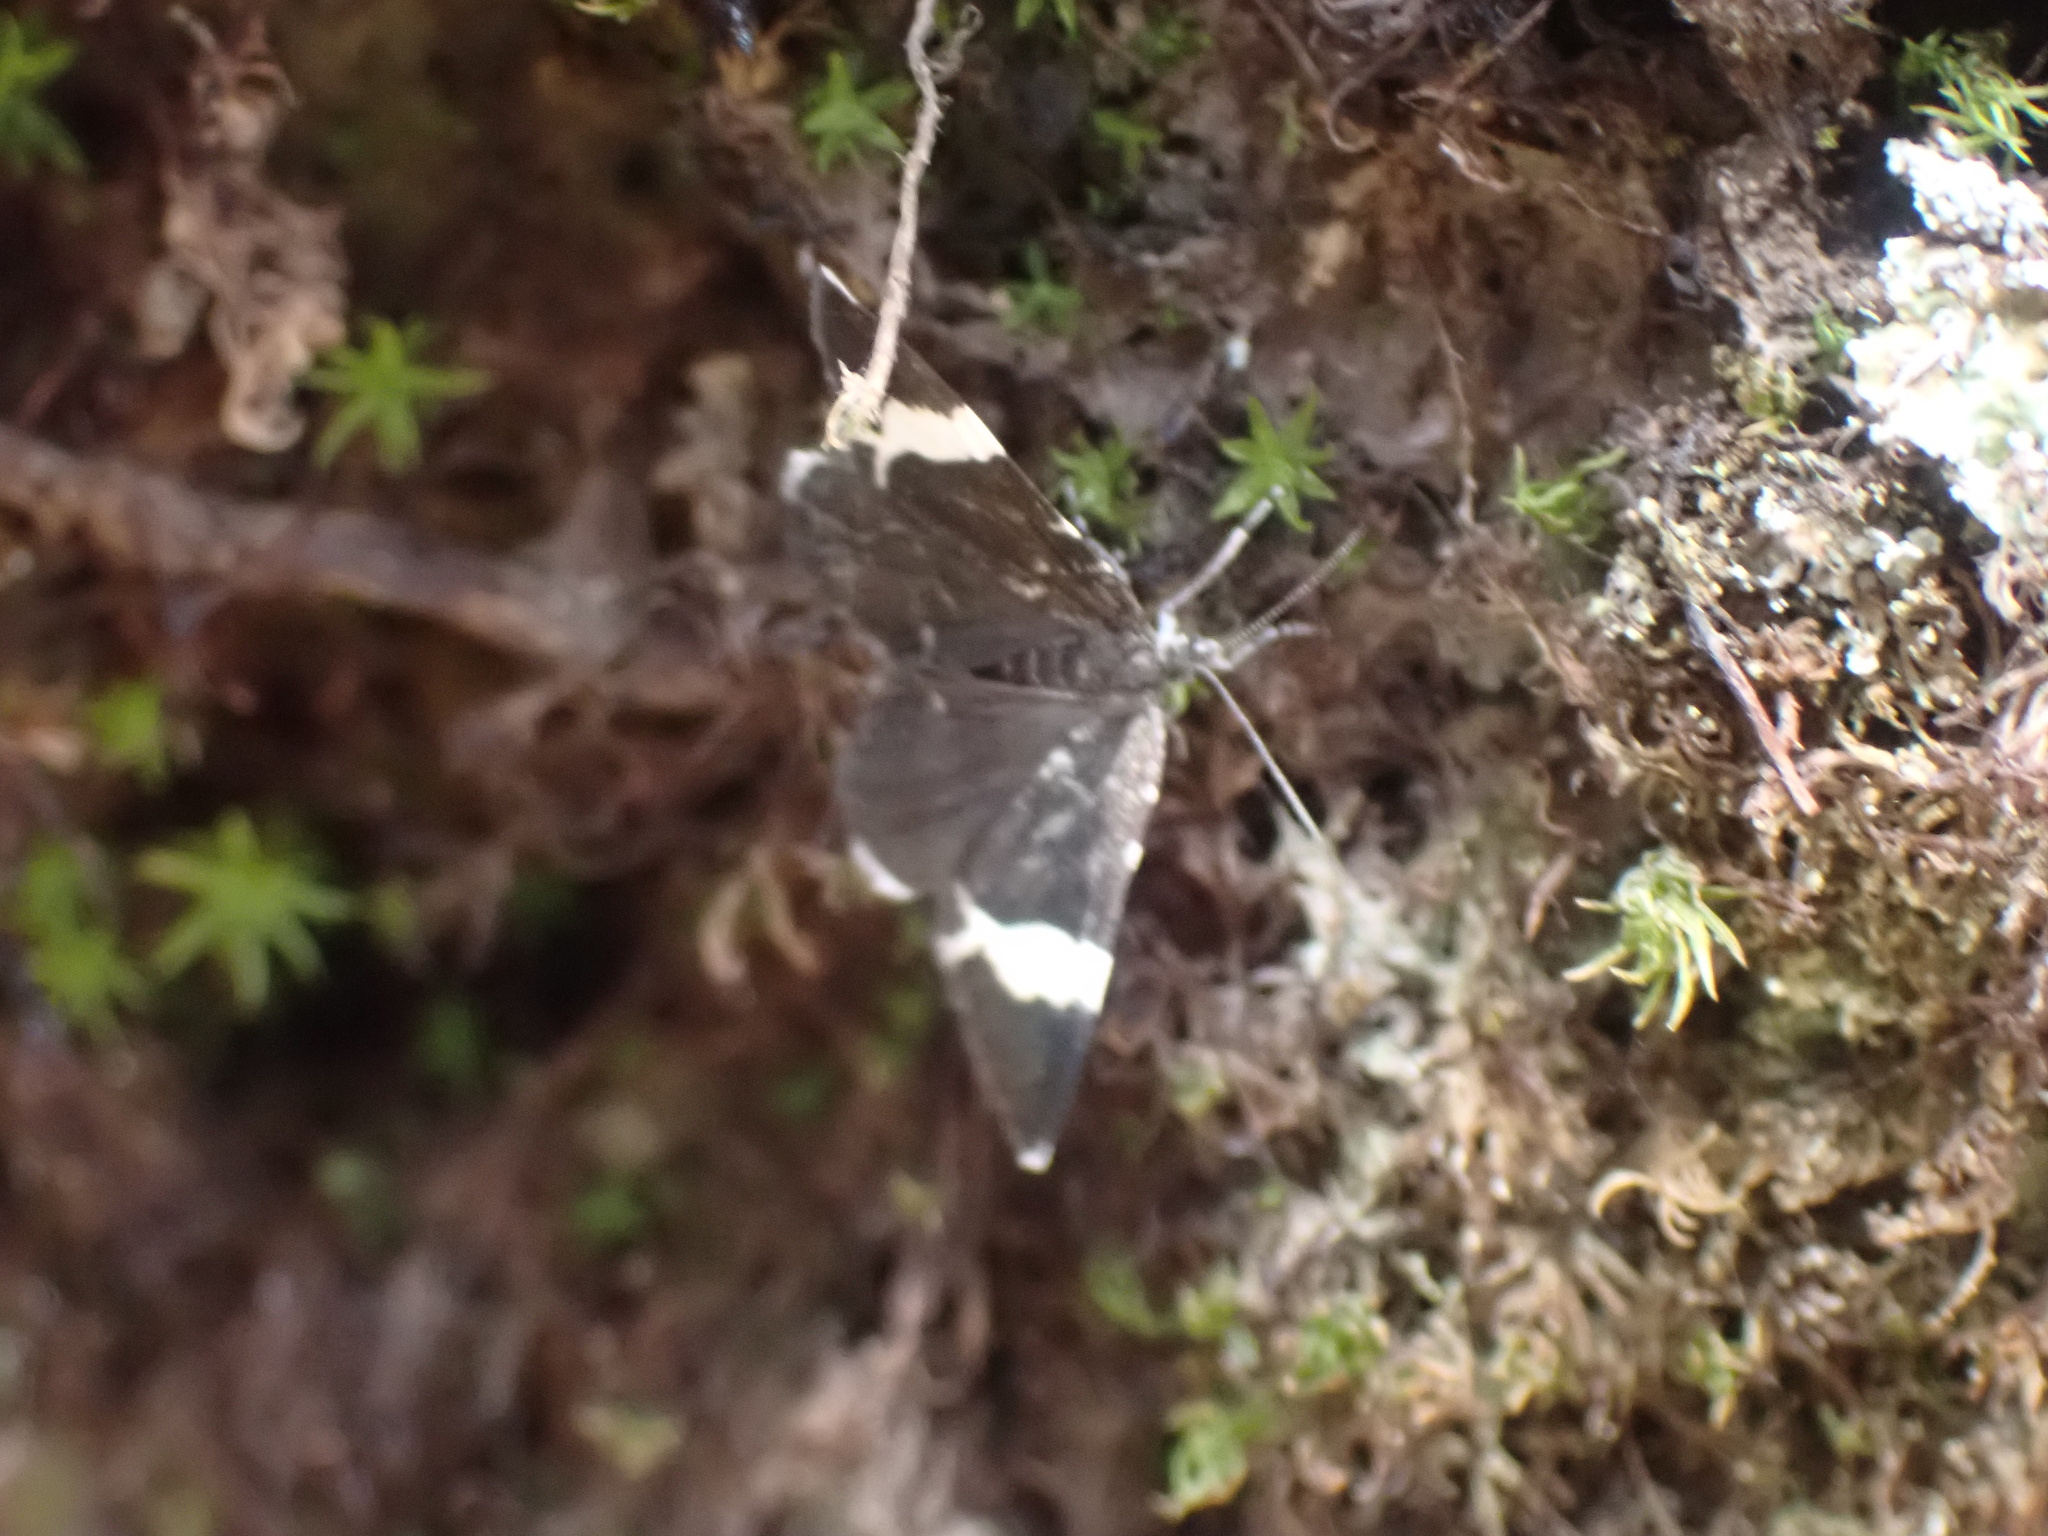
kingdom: Animalia
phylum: Arthropoda
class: Insecta
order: Lepidoptera
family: Geometridae
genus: Trichodezia
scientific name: Trichodezia albovittata
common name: White striped black
